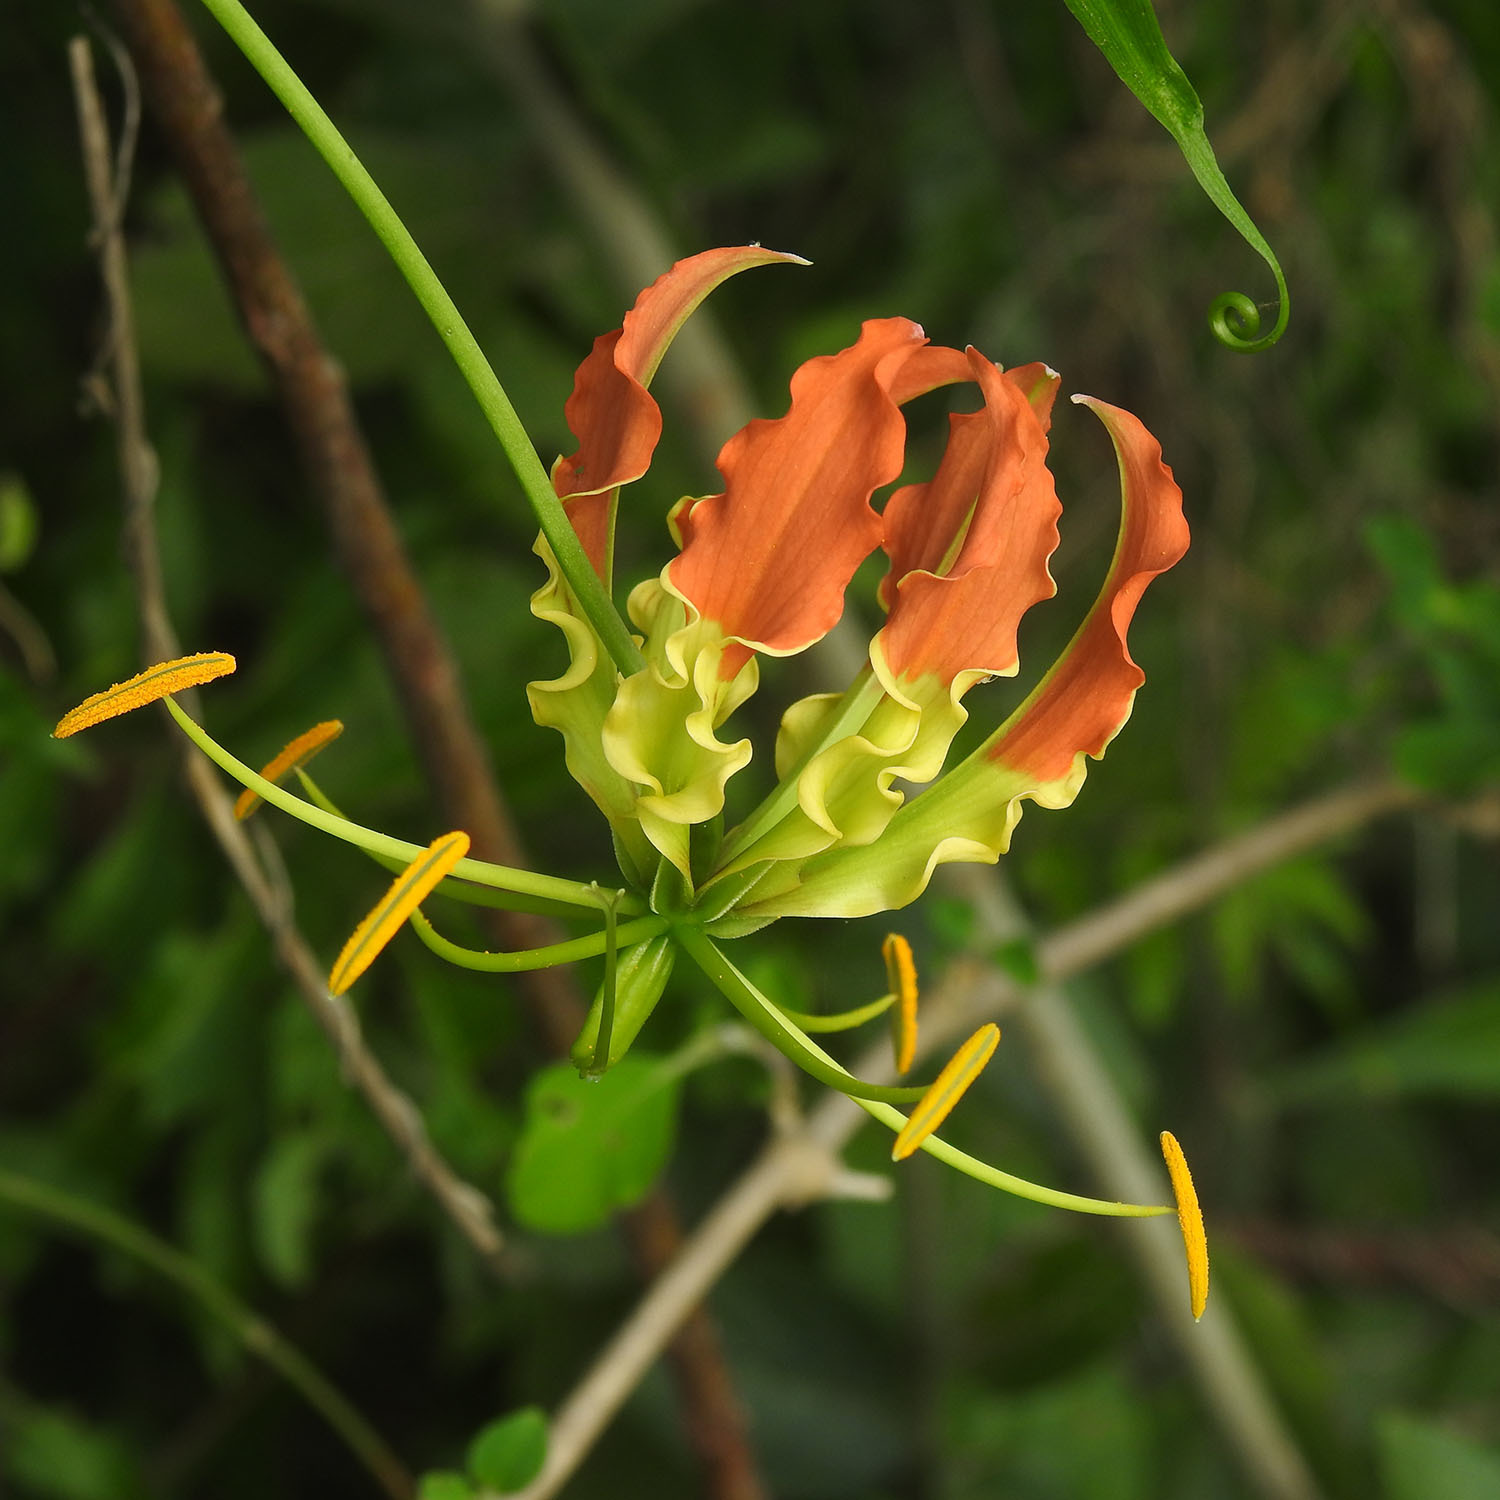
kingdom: Plantae
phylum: Tracheophyta
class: Liliopsida
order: Liliales
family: Colchicaceae
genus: Gloriosa
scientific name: Gloriosa superba
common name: Flame lily
